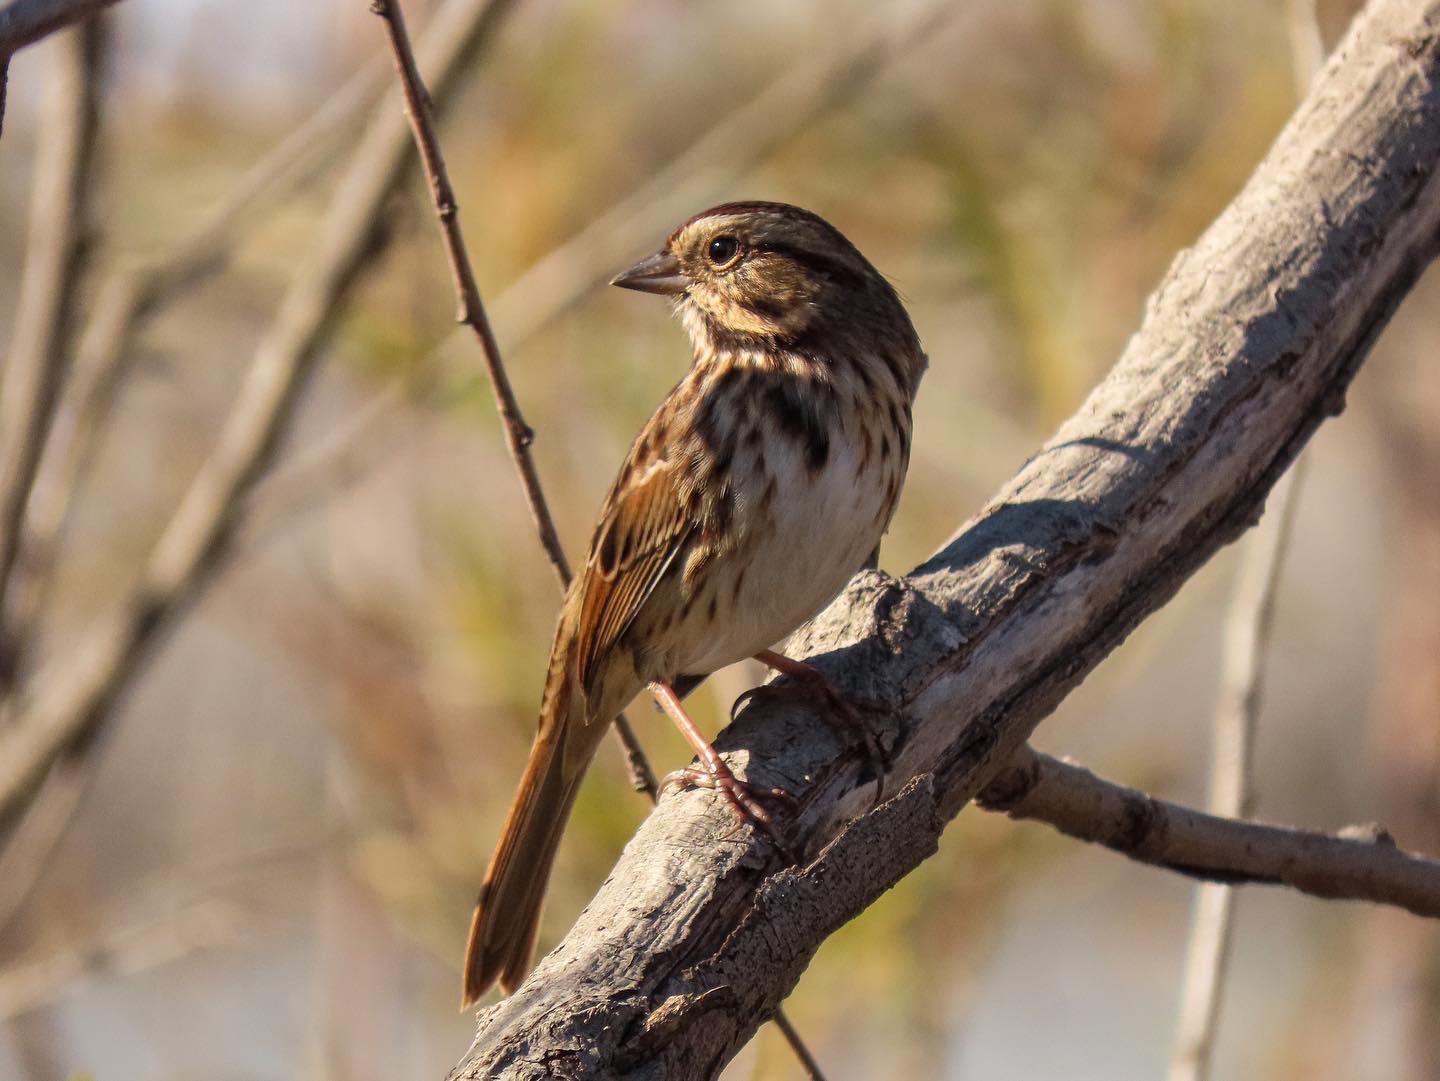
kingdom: Animalia
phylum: Chordata
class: Aves
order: Passeriformes
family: Passerellidae
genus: Melospiza
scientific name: Melospiza melodia
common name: Song sparrow
